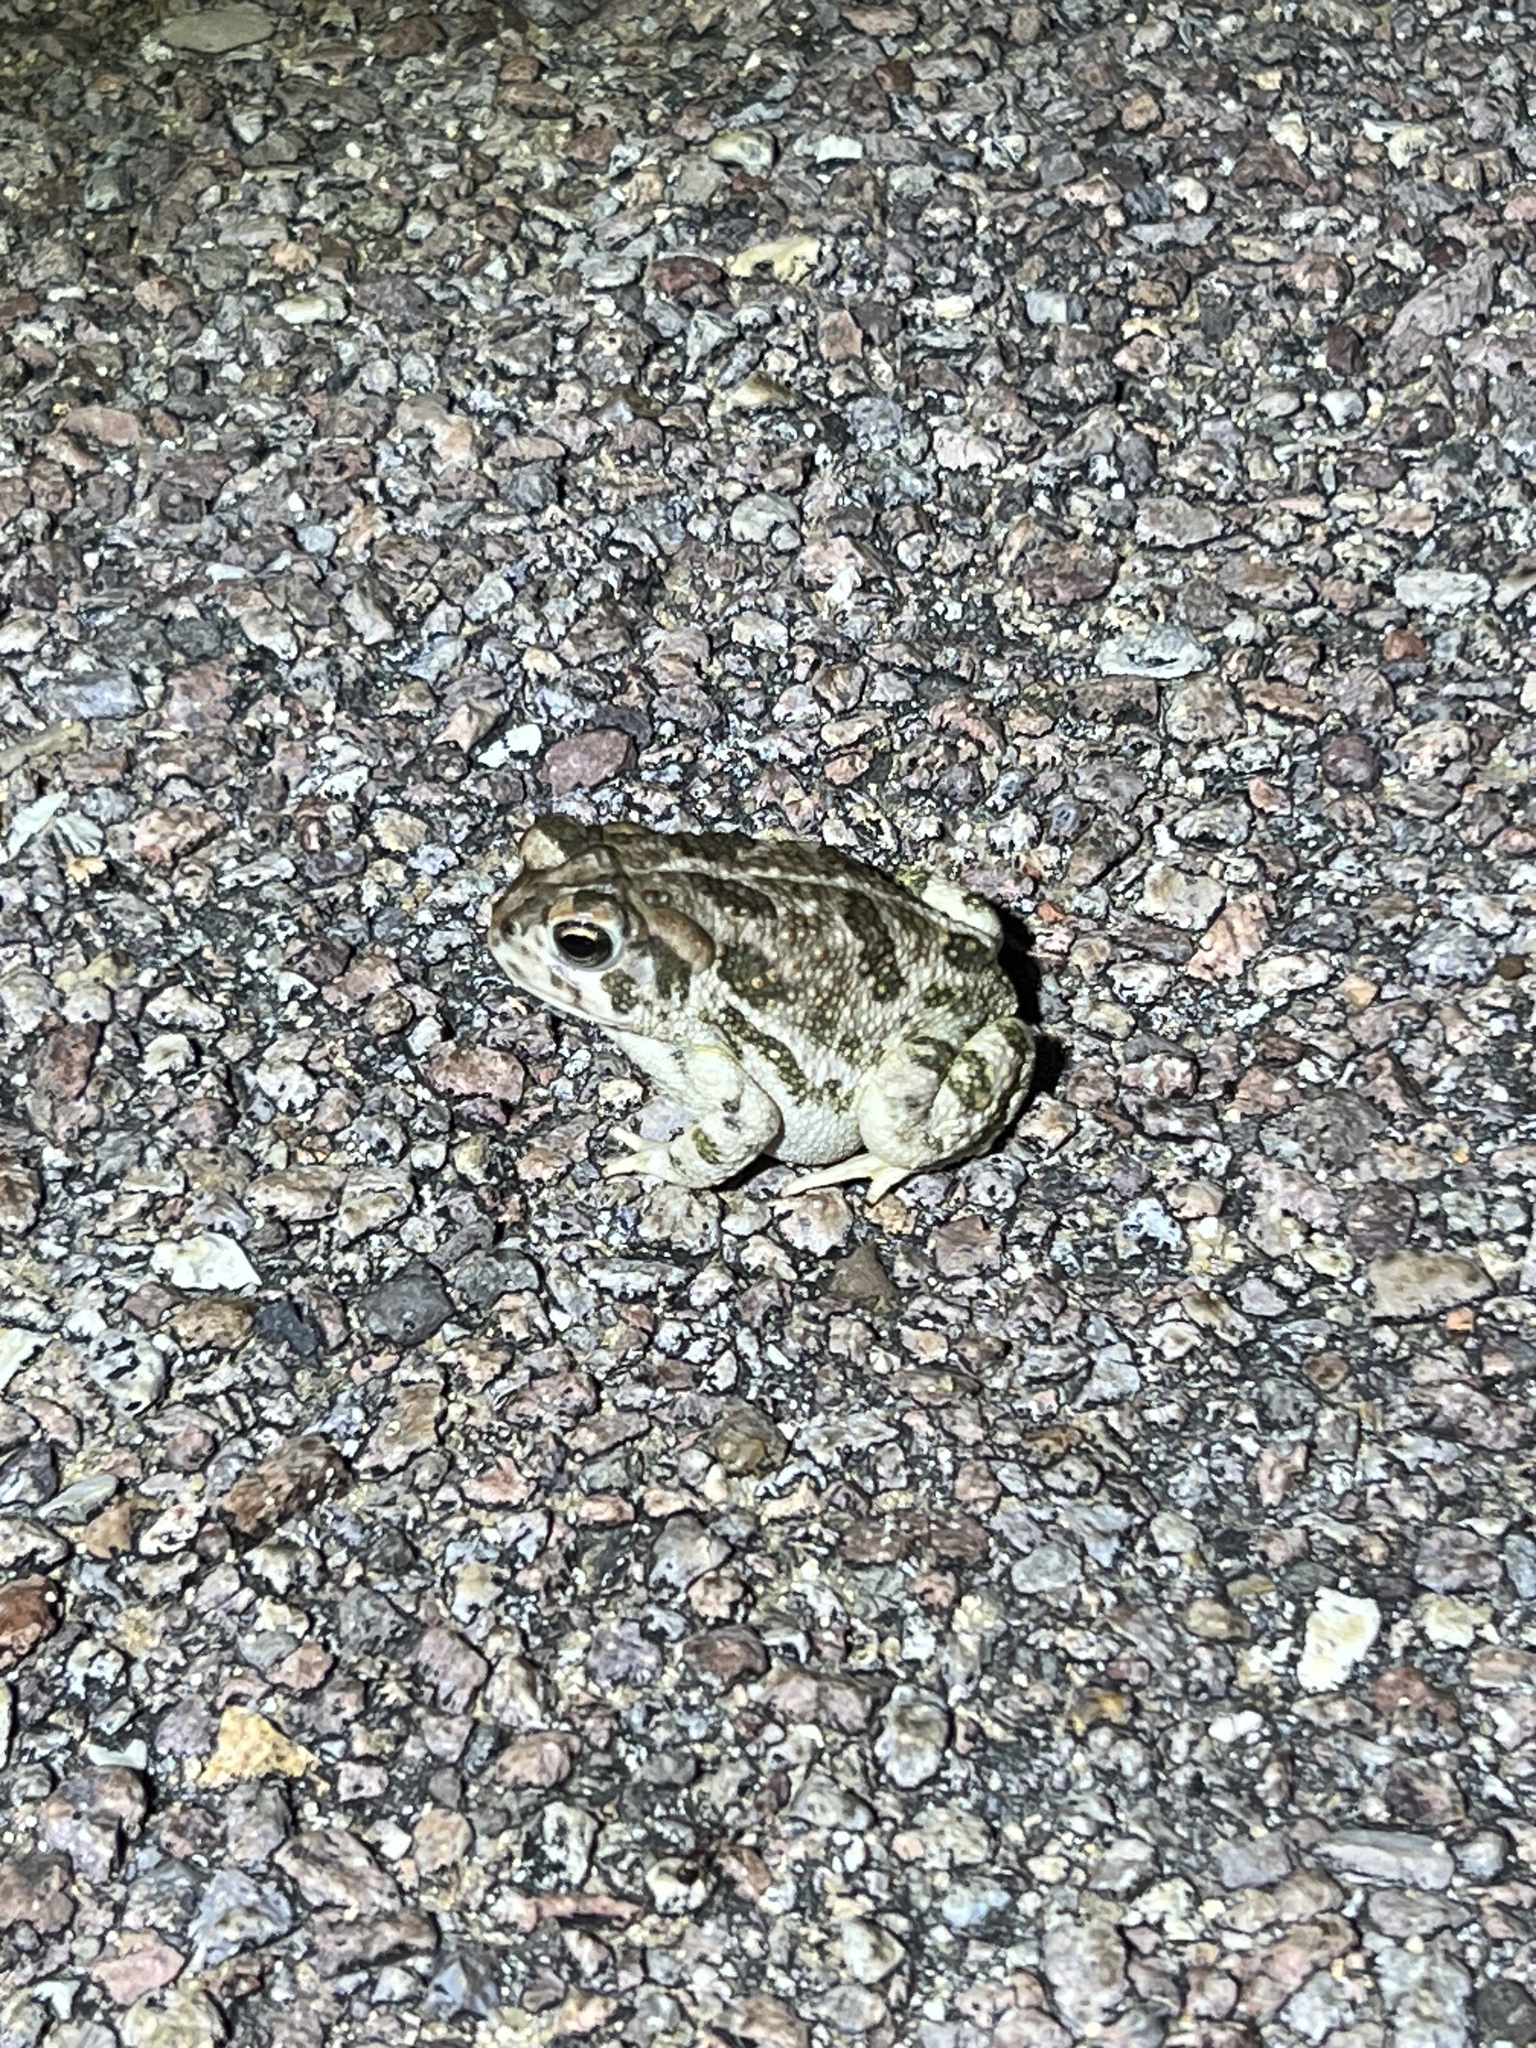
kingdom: Animalia
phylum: Chordata
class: Amphibia
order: Anura
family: Bufonidae
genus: Anaxyrus
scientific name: Anaxyrus cognatus
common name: Great plains toad
